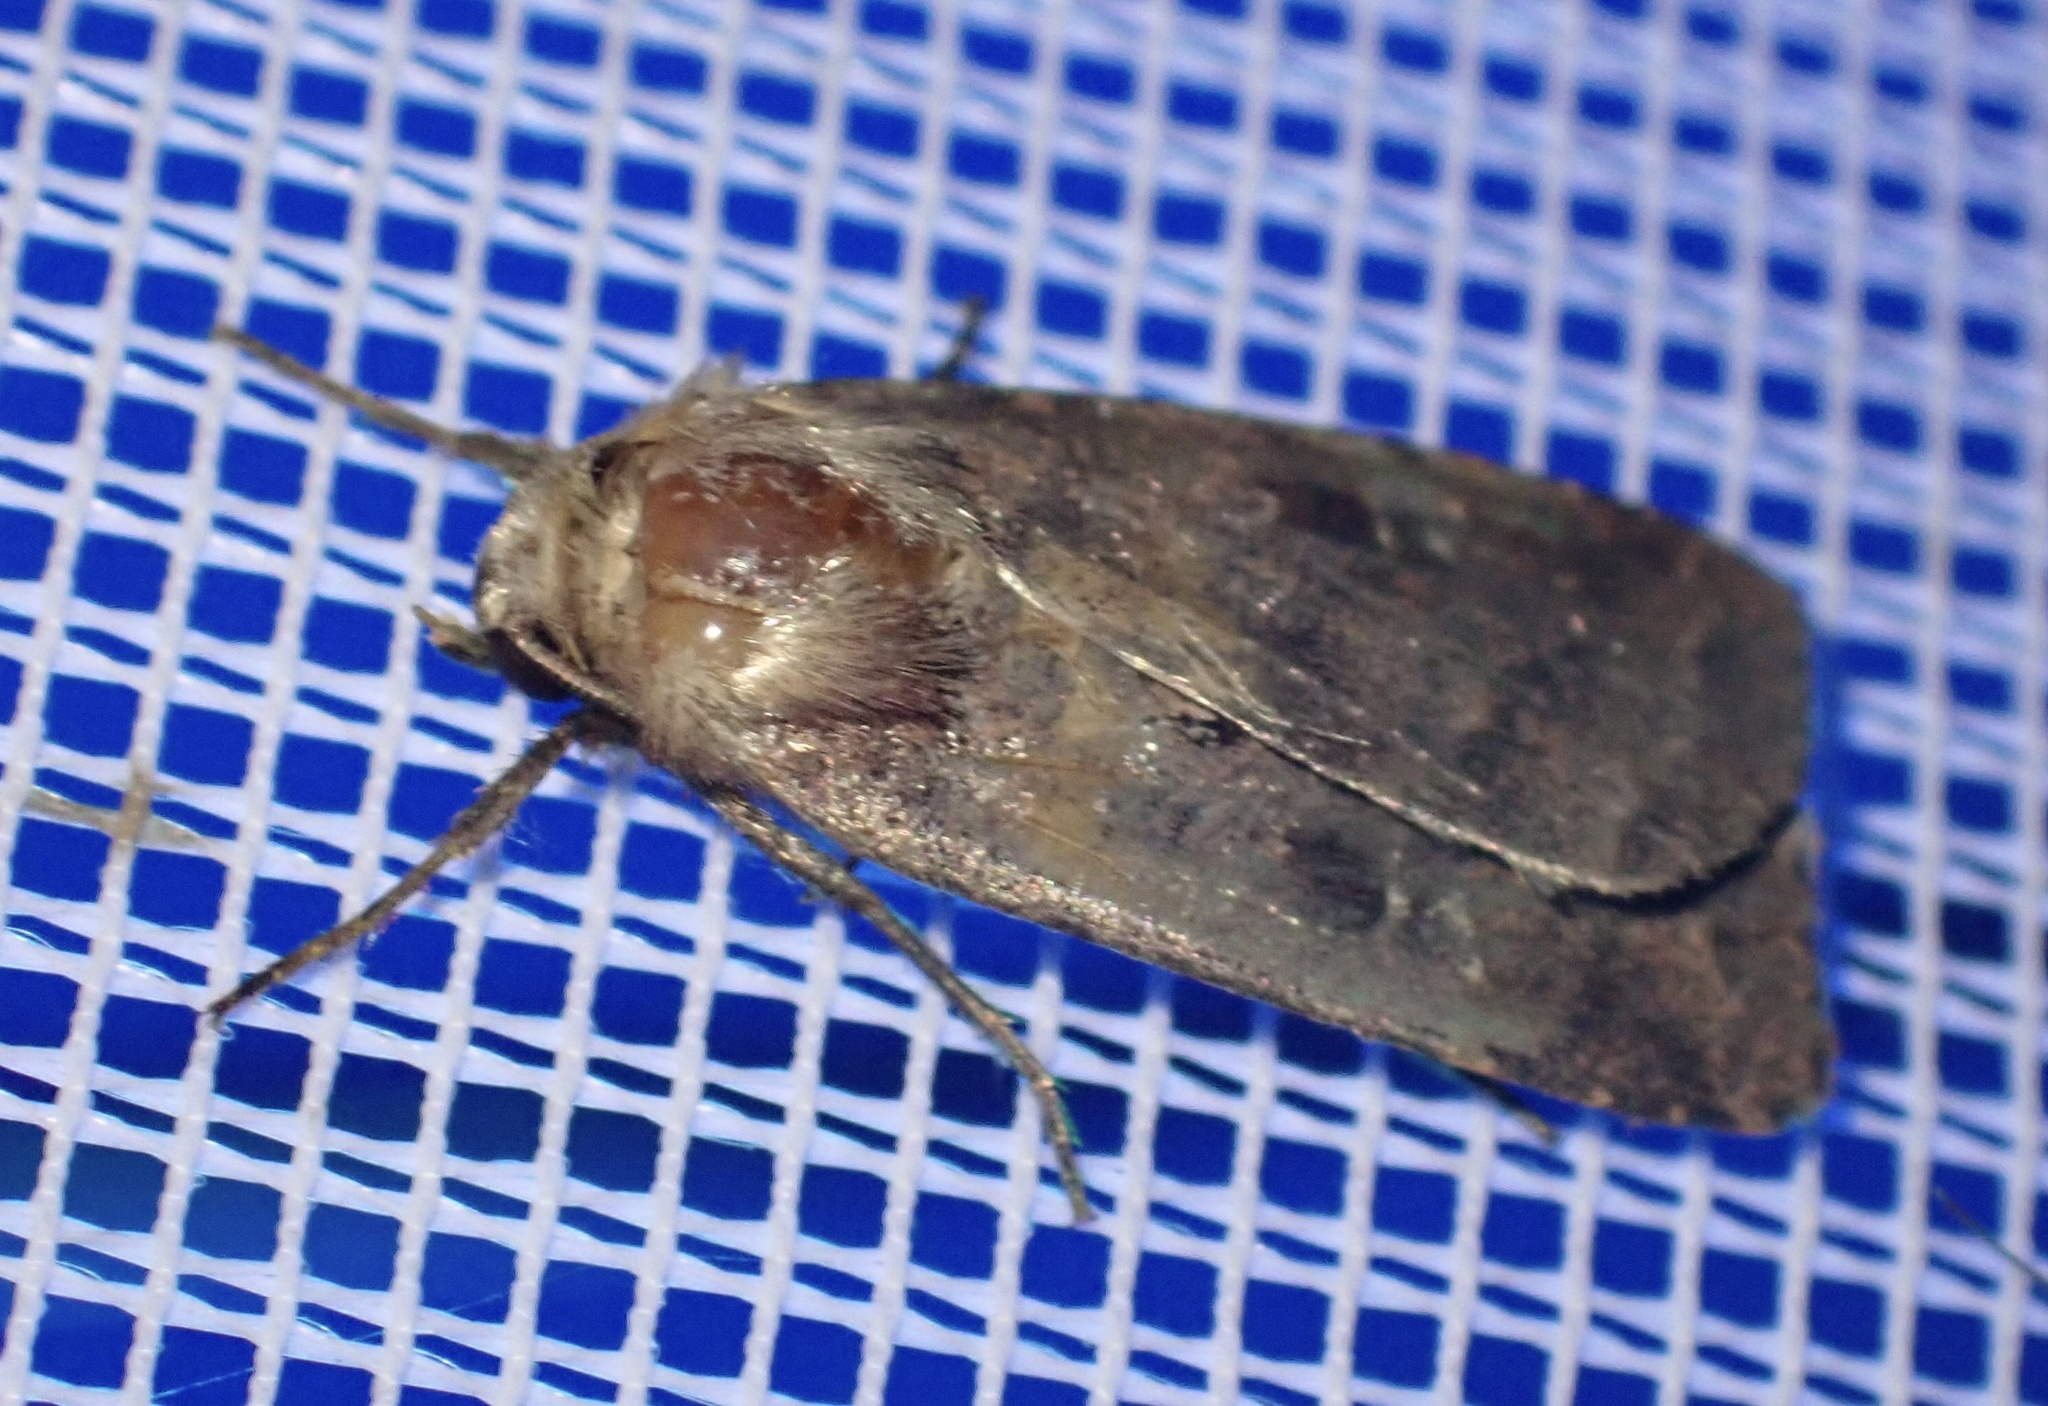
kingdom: Animalia
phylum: Arthropoda
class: Insecta
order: Lepidoptera
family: Noctuidae
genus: Diarsia
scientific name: Diarsia rubi
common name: Small square-spot
